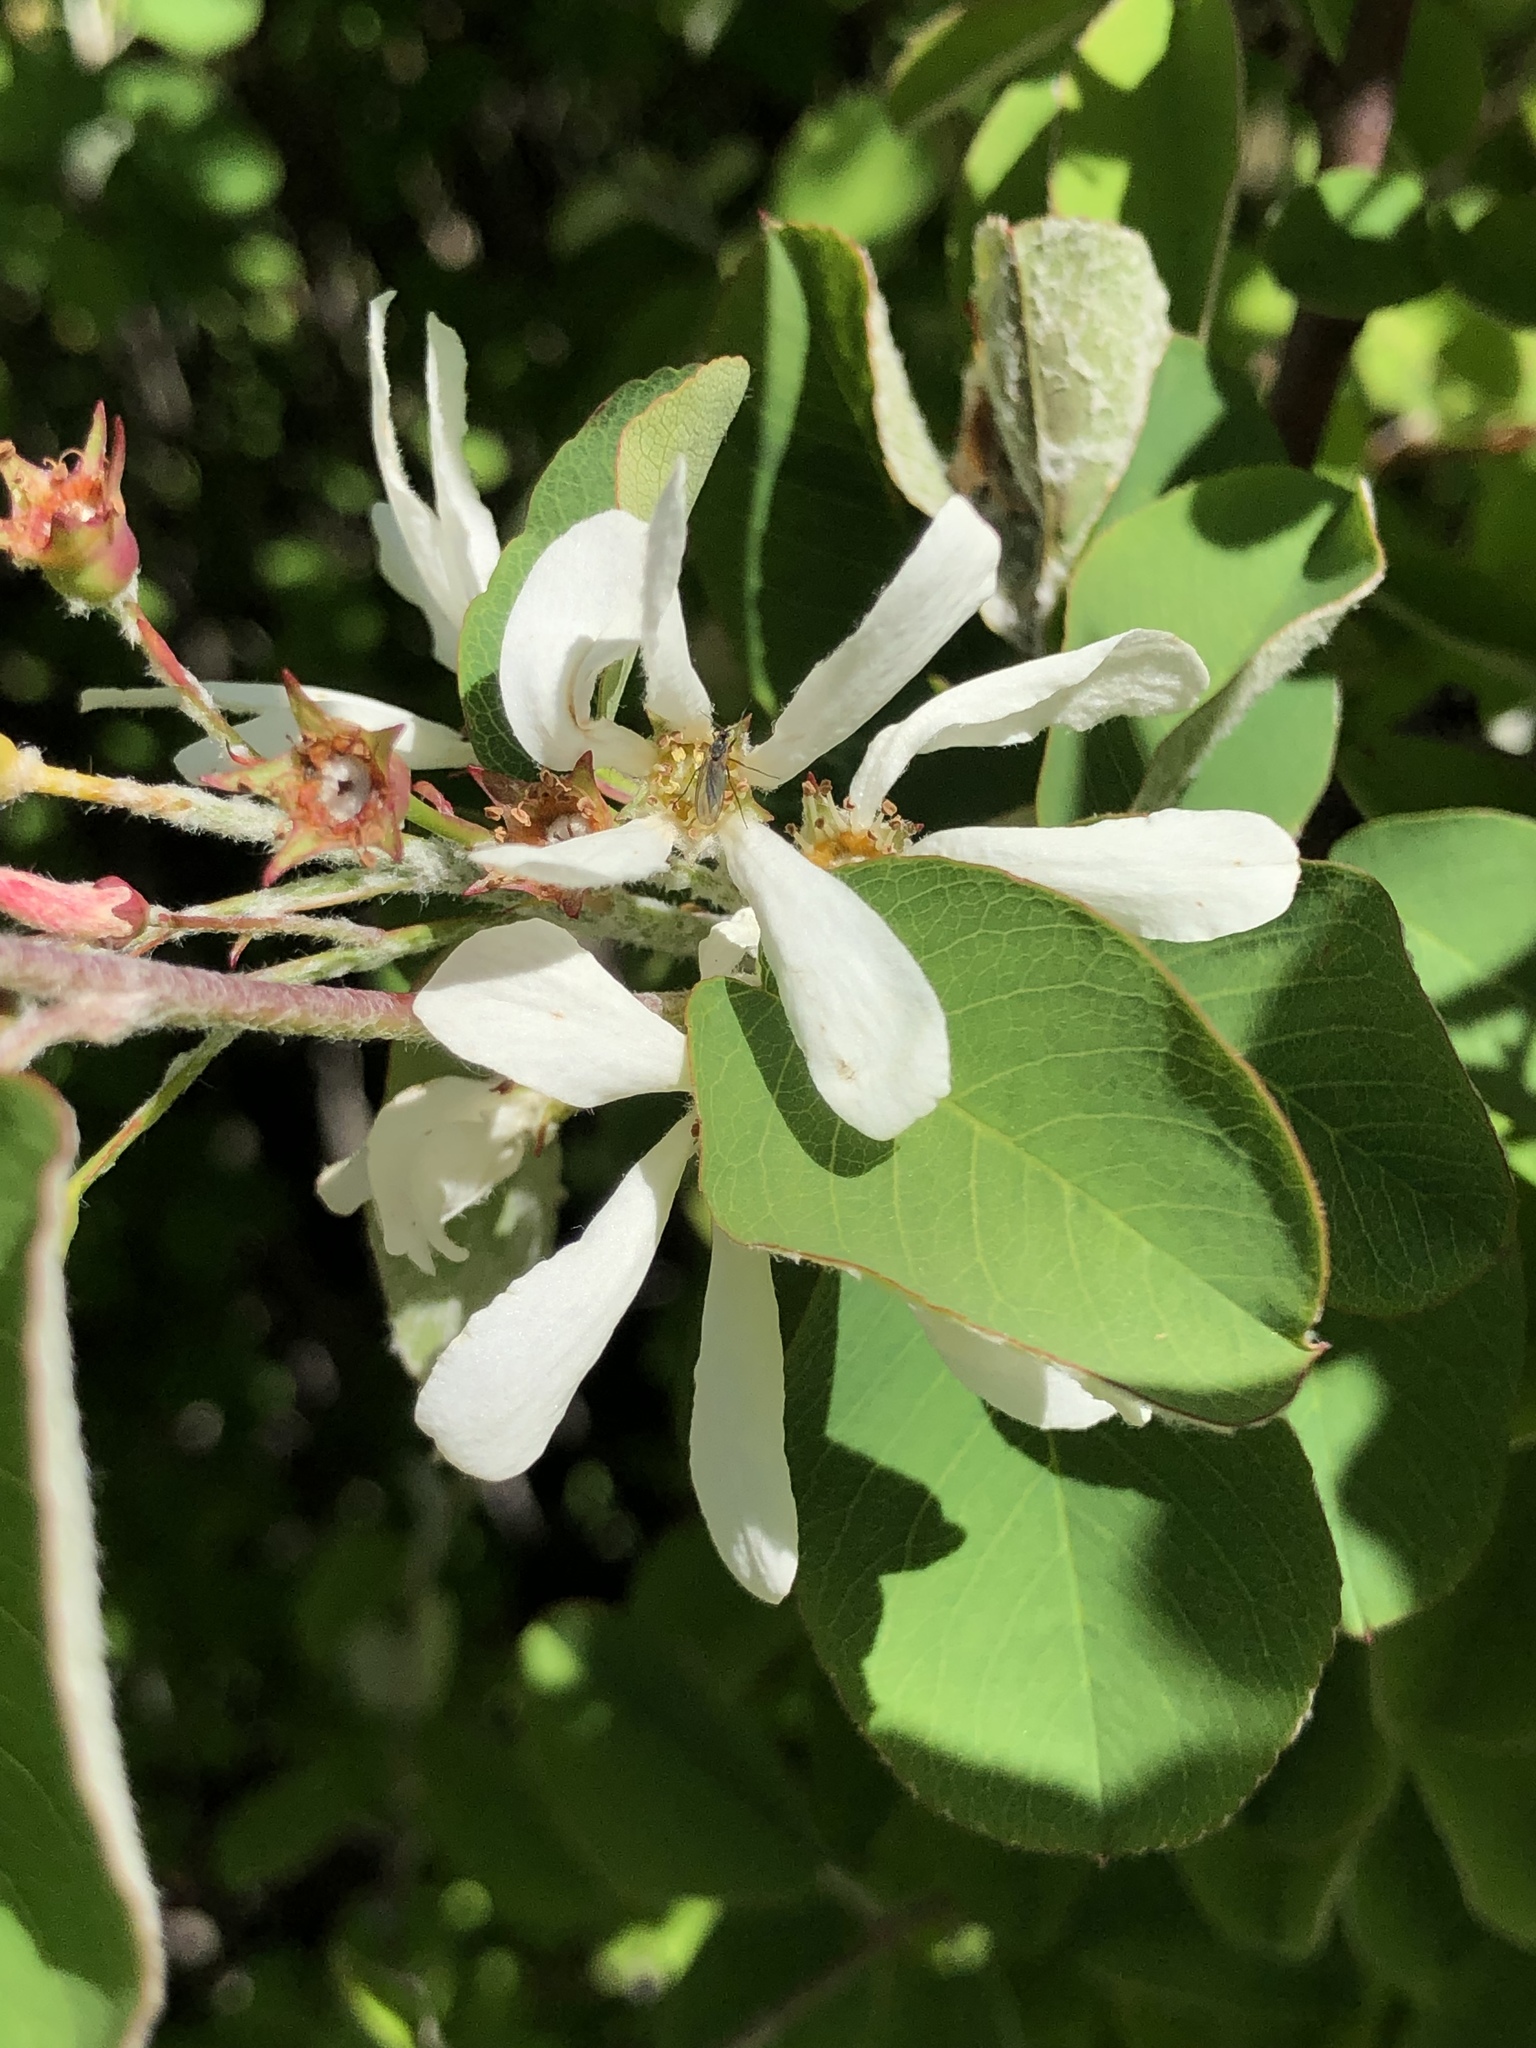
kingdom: Plantae
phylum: Tracheophyta
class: Magnoliopsida
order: Rosales
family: Rosaceae
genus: Amelanchier
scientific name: Amelanchier ovalis
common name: Serviceberry
